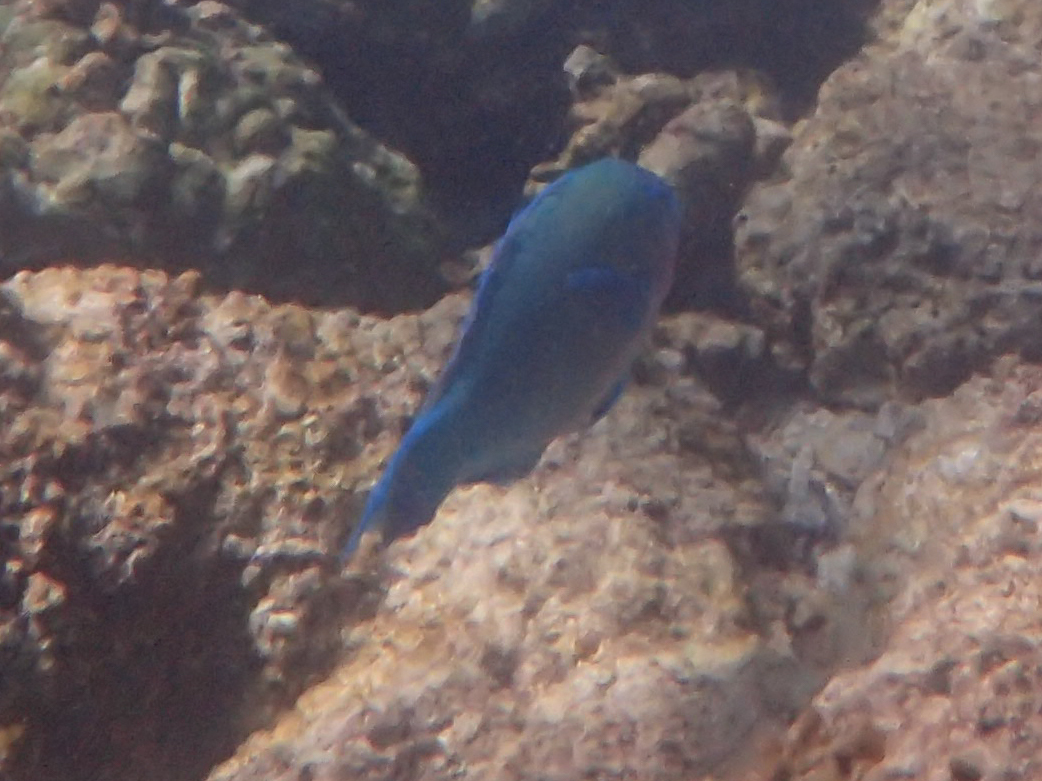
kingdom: Animalia
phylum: Chordata
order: Perciformes
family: Scaridae
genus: Scarus
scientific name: Scarus psittacus
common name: Palenose parrotfish
